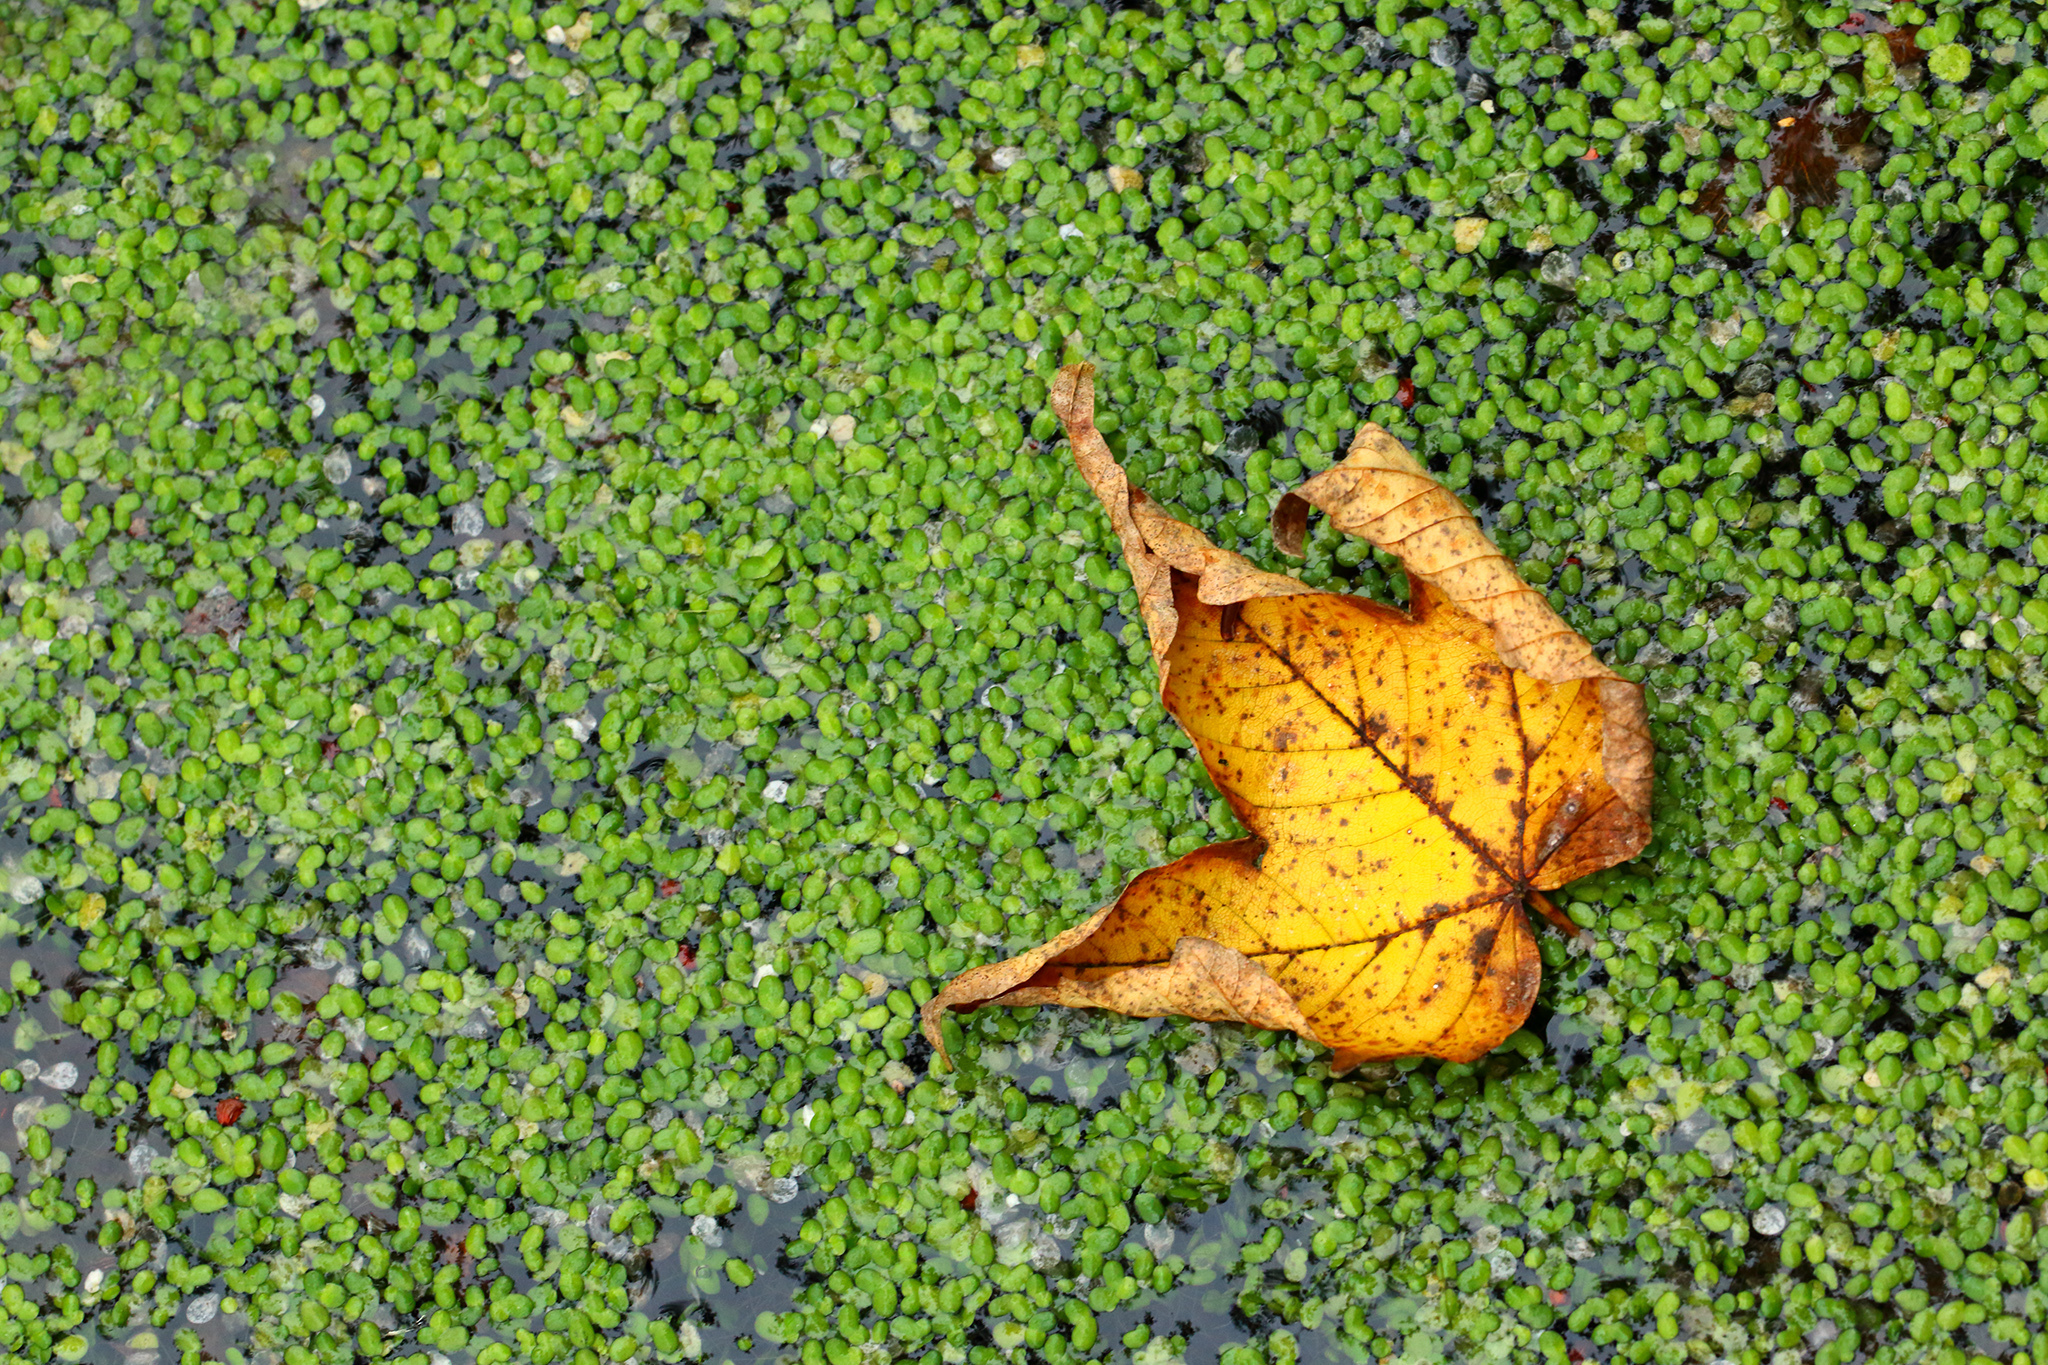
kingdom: Plantae
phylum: Tracheophyta
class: Liliopsida
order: Alismatales
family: Araceae
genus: Lemna
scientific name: Lemna minor
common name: Common duckweed
